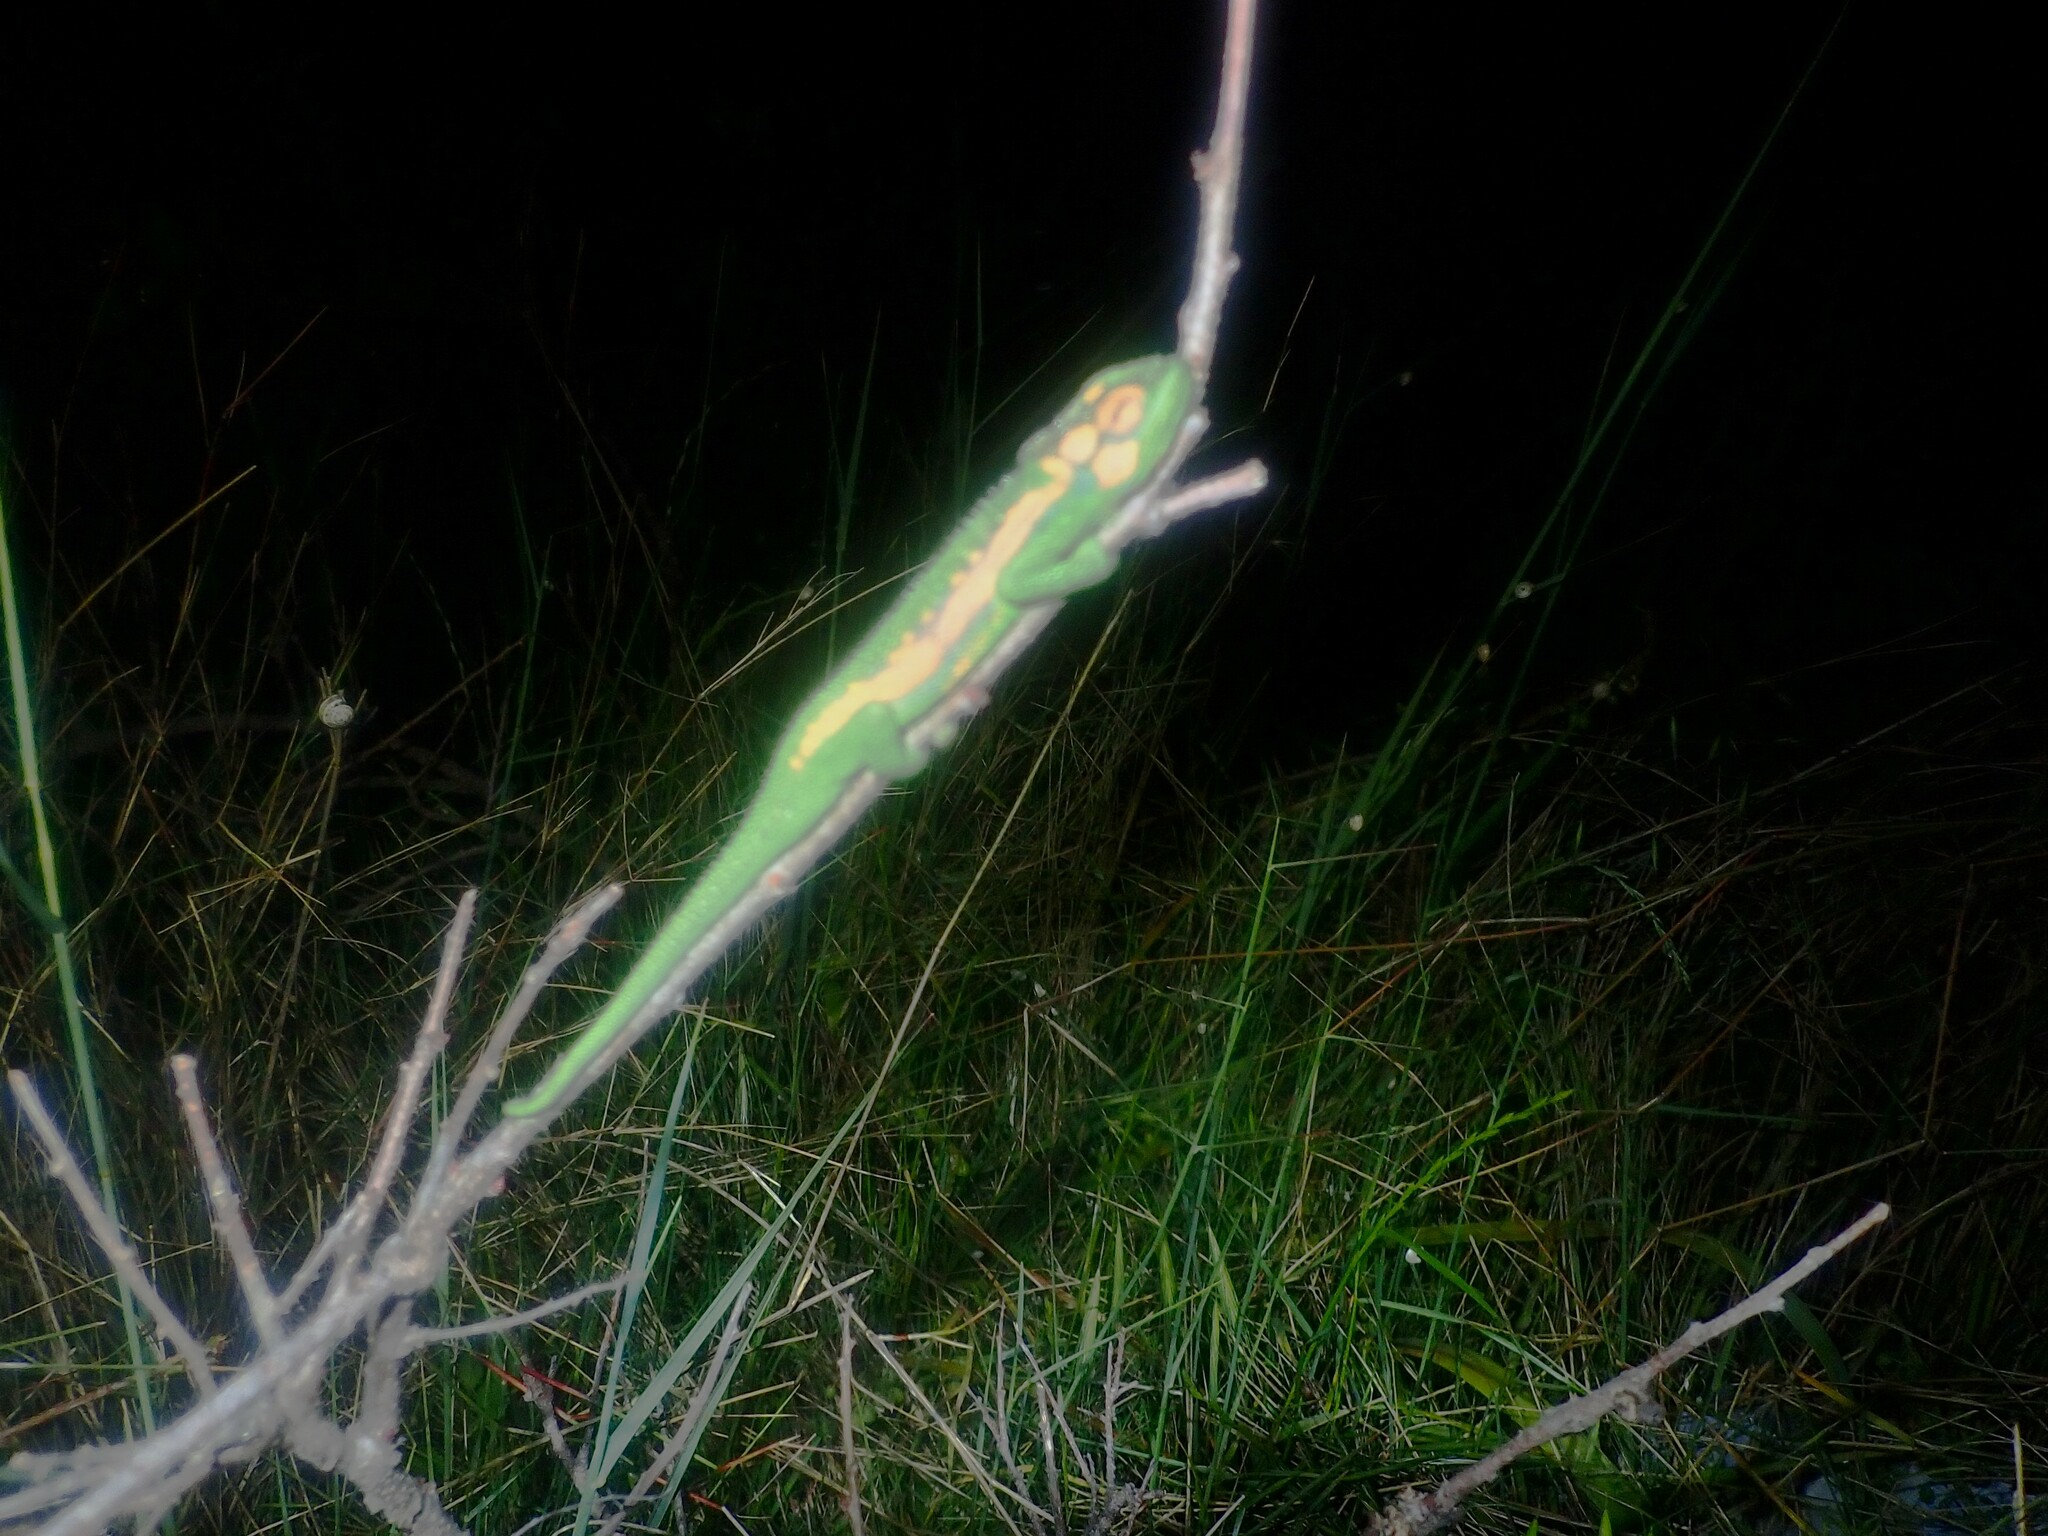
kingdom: Animalia
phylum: Chordata
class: Squamata
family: Chamaeleonidae
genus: Bradypodion
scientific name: Bradypodion pumilum
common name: Cape dwarf chameleon
